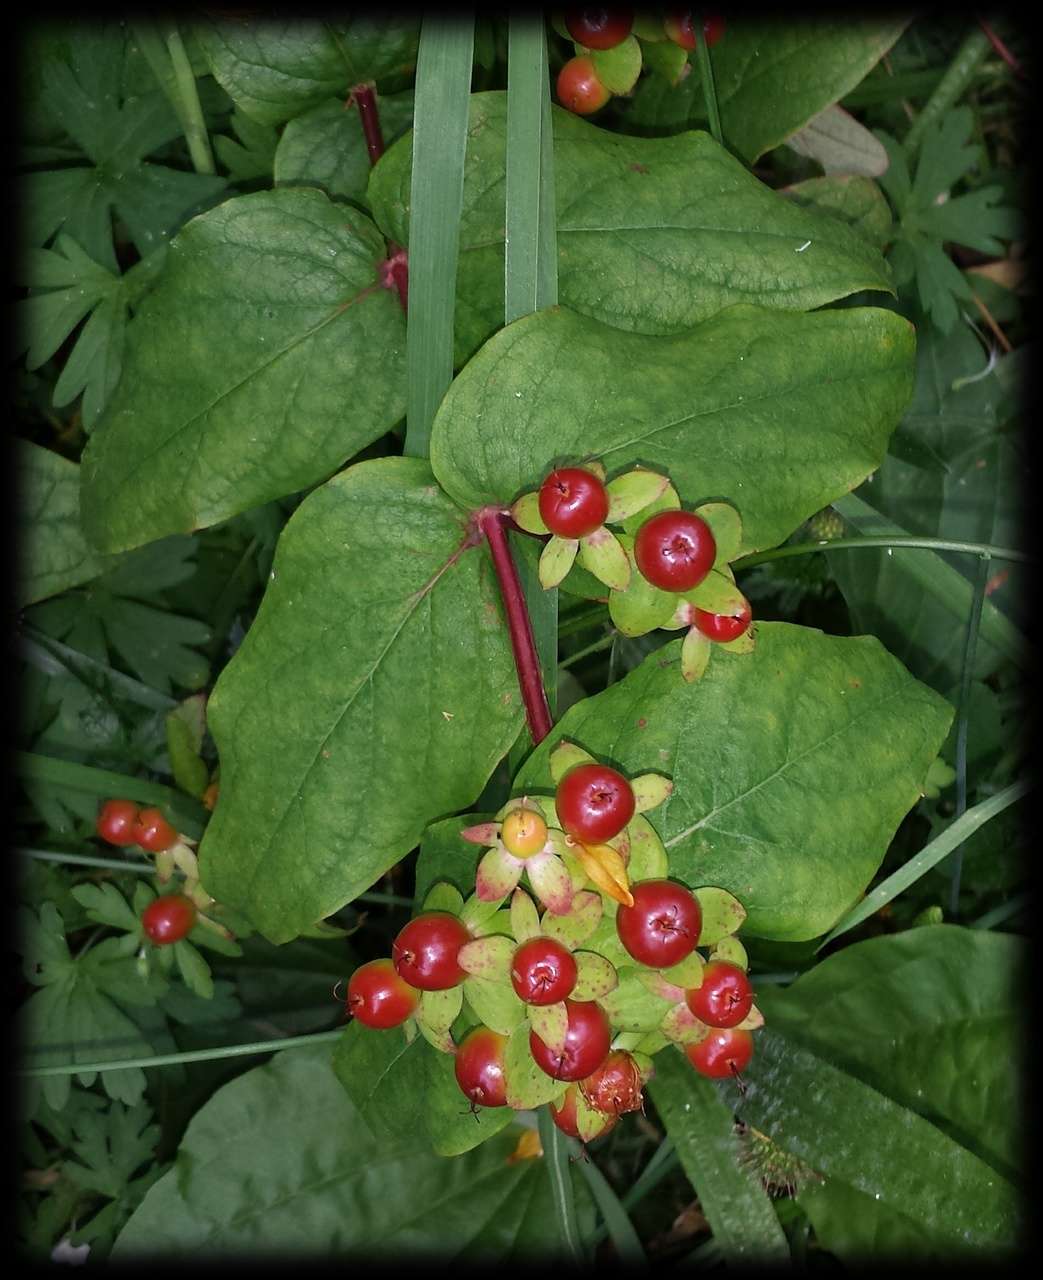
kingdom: Plantae
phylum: Tracheophyta
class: Magnoliopsida
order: Malpighiales
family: Hypericaceae
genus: Hypericum
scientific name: Hypericum androsaemum
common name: Sweet-amber
